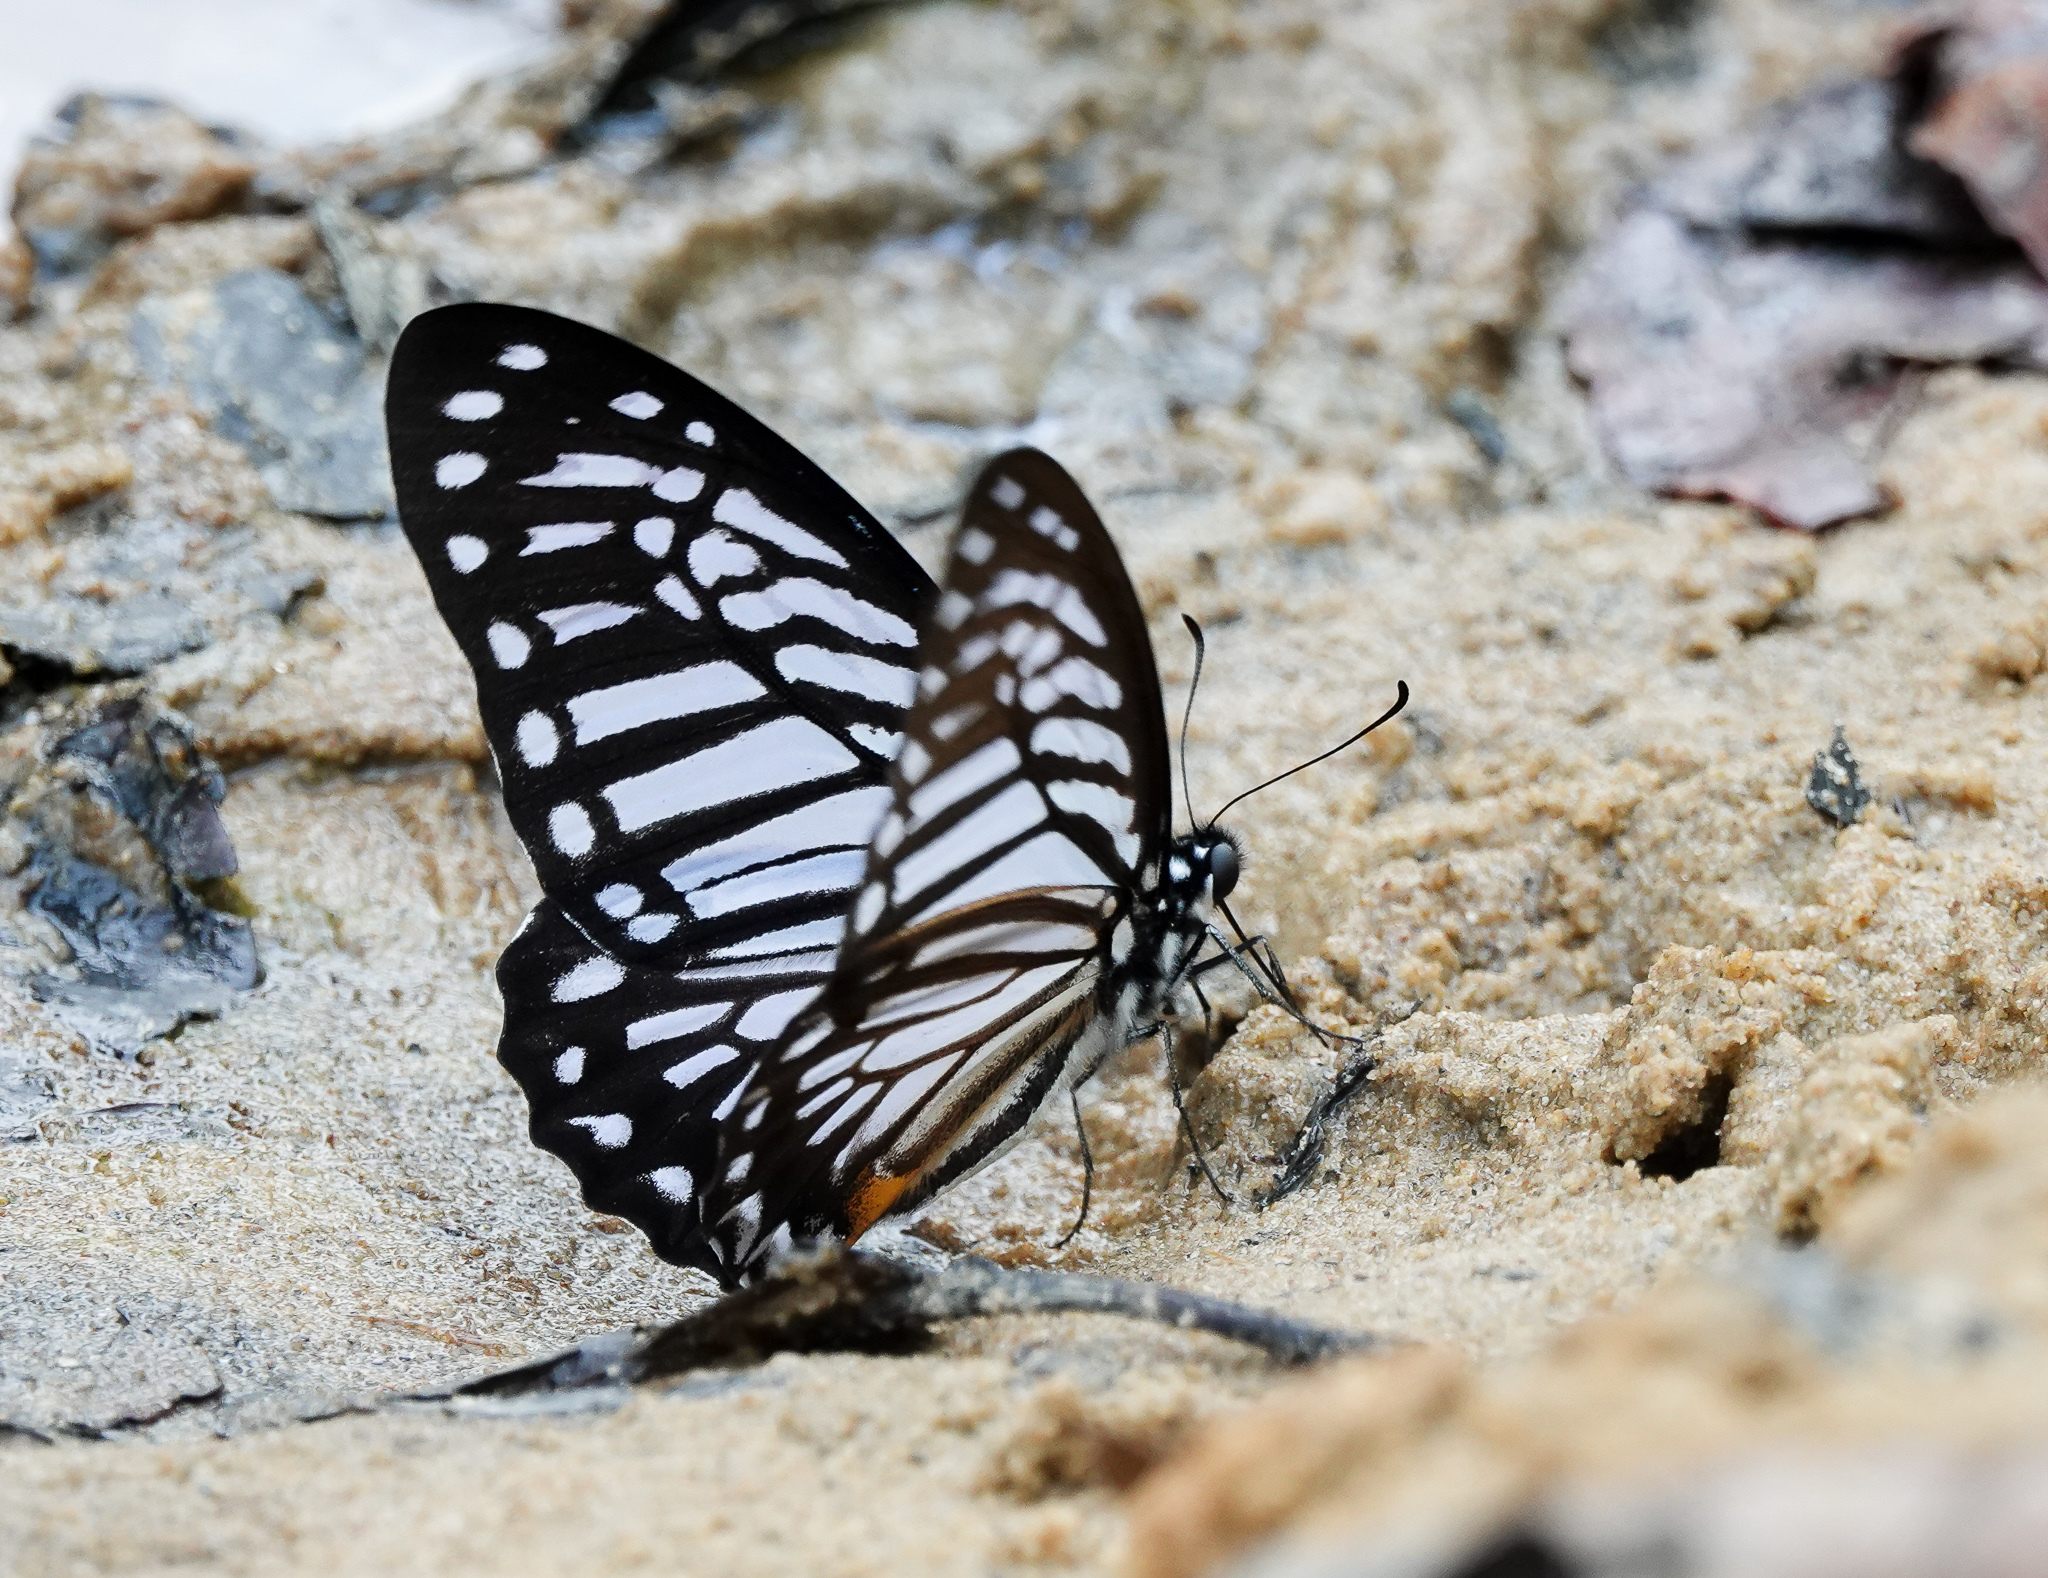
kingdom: Animalia
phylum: Arthropoda
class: Insecta
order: Lepidoptera
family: Papilionidae
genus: Graphium
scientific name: Graphium xenocles
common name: Great zebra
